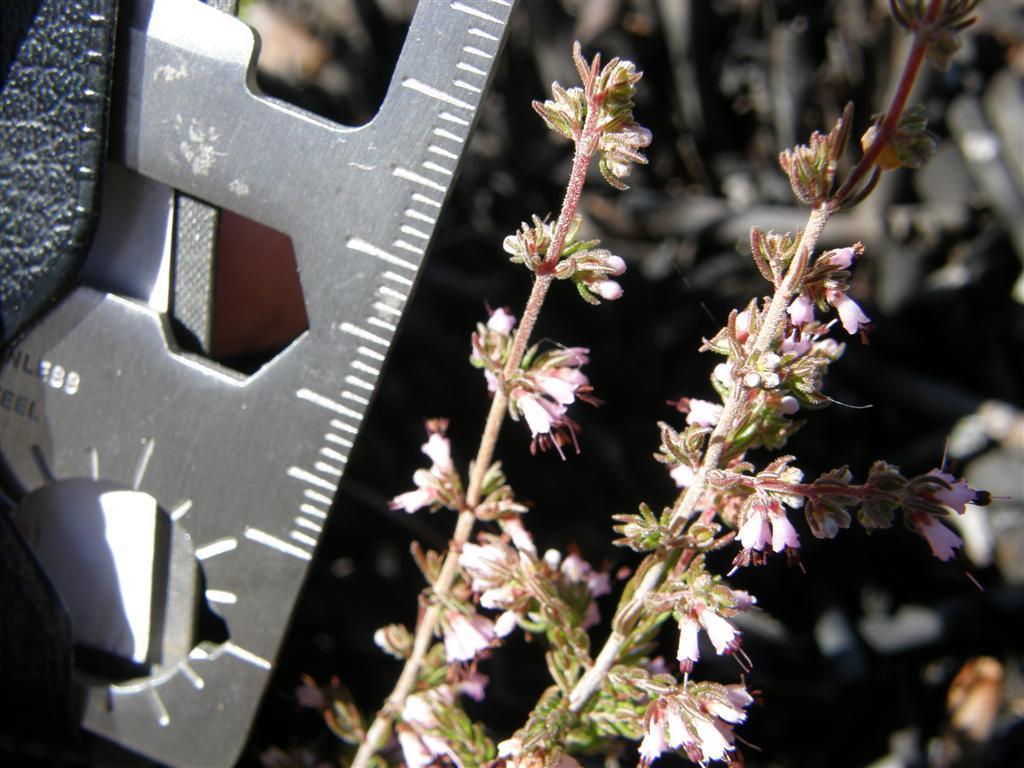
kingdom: Plantae
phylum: Tracheophyta
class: Magnoliopsida
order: Ericales
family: Ericaceae
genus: Erica
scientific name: Erica anguliger
